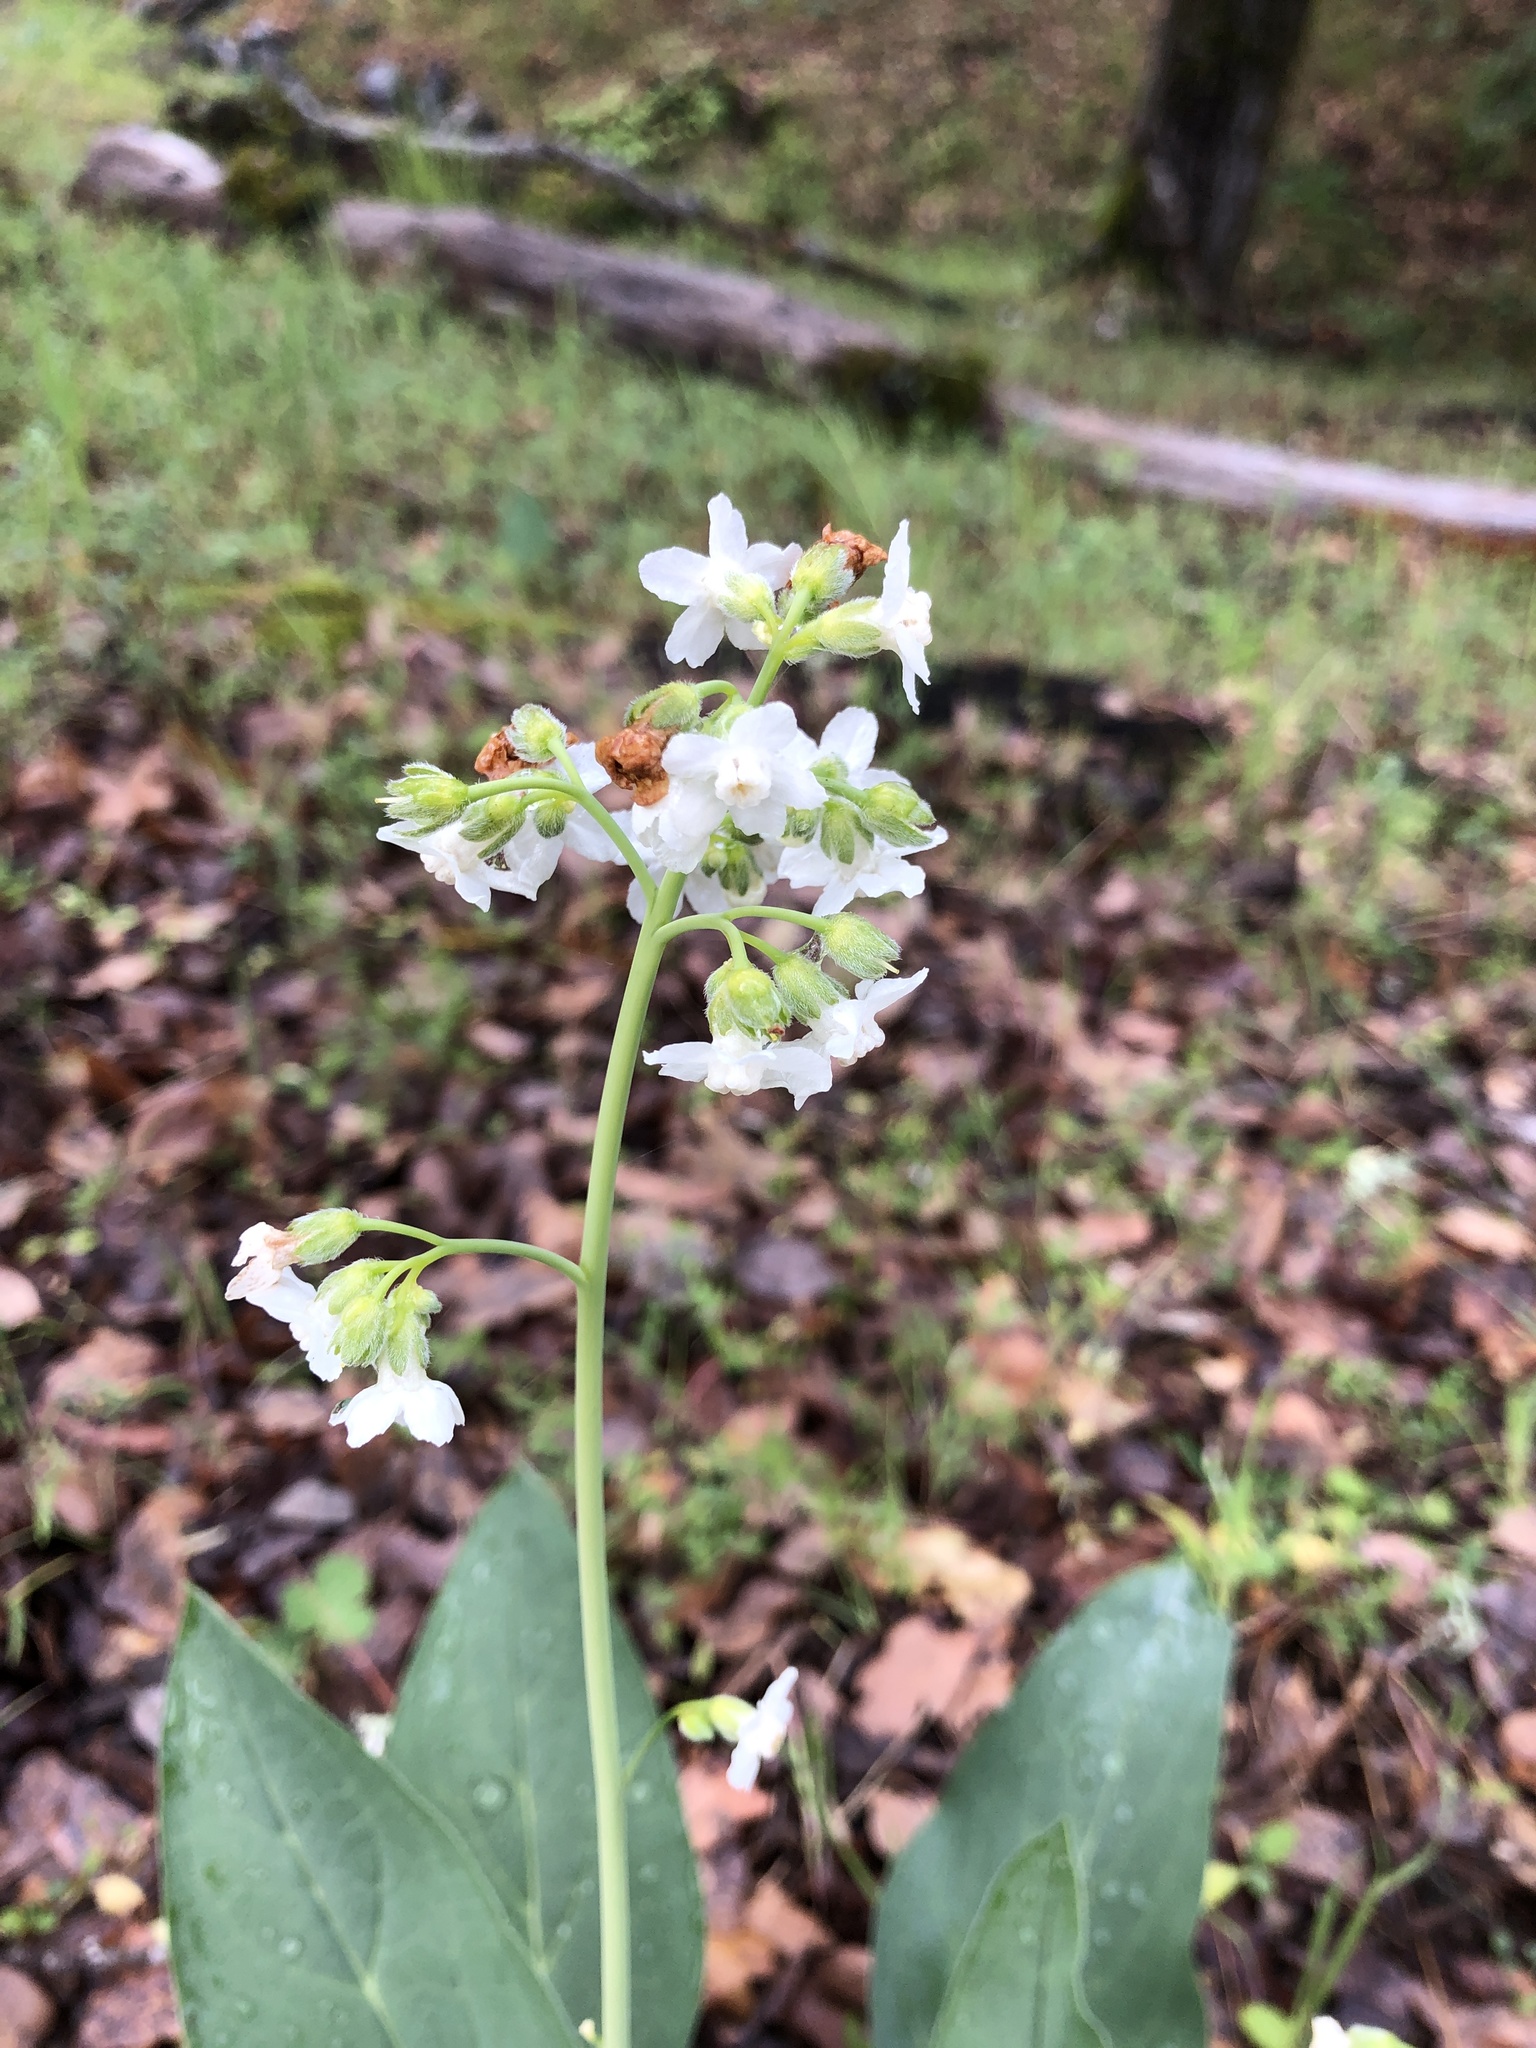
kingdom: Plantae
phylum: Tracheophyta
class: Magnoliopsida
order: Boraginales
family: Boraginaceae
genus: Adelinia
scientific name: Adelinia grande
